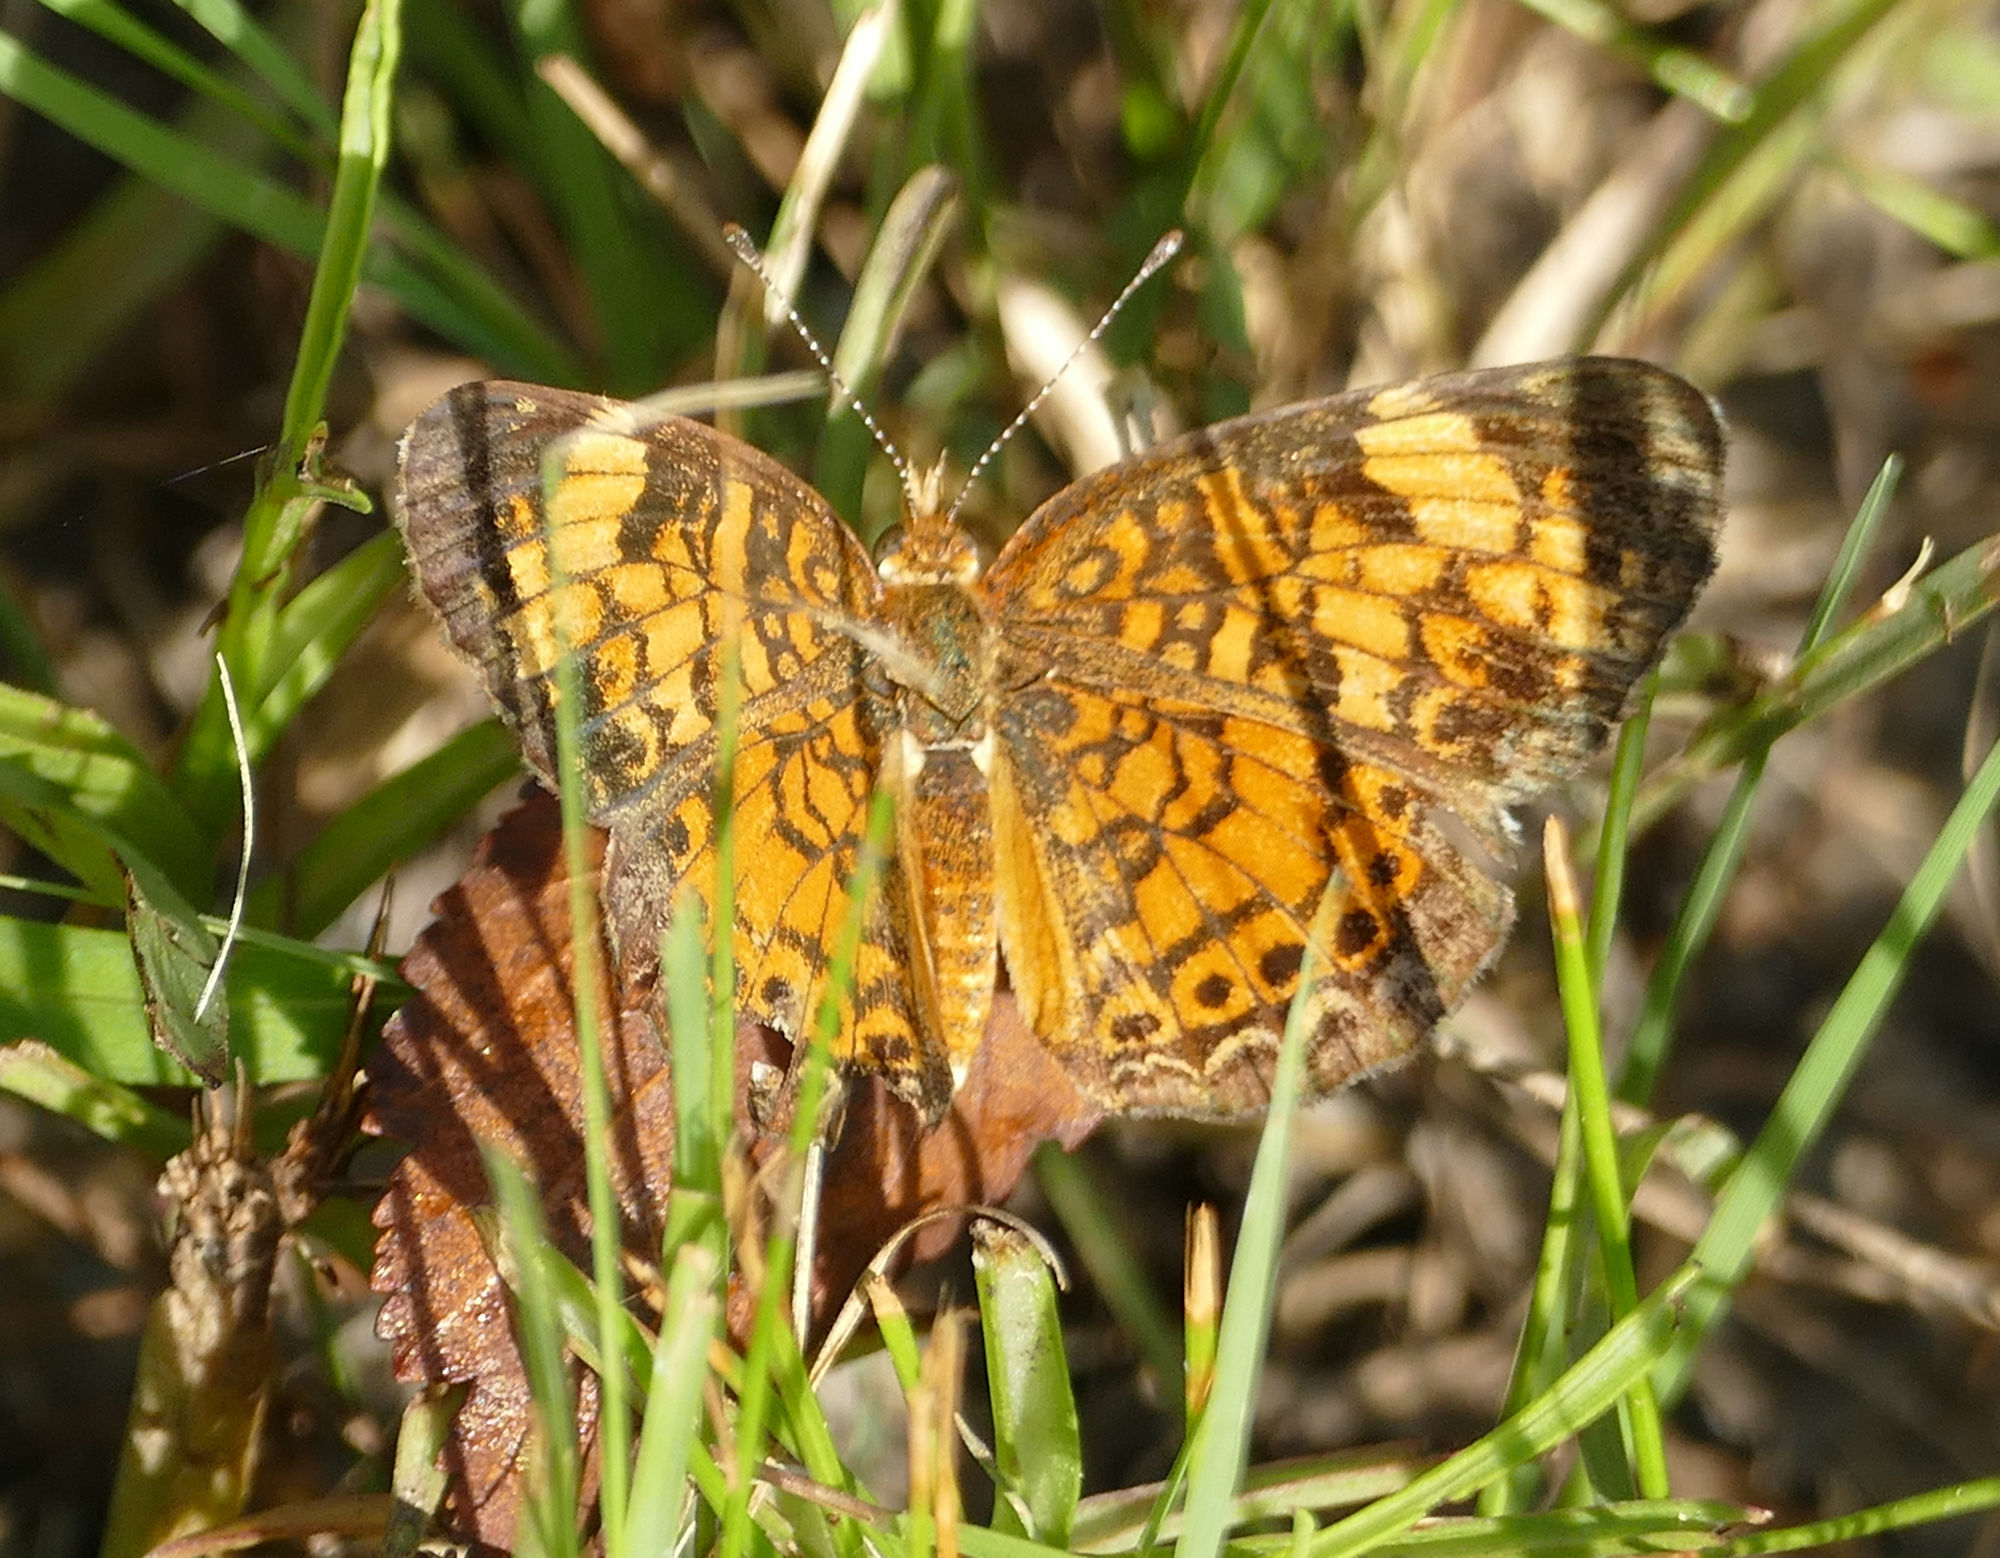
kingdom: Animalia
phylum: Arthropoda
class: Insecta
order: Lepidoptera
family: Nymphalidae
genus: Phyciodes
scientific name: Phyciodes tharos
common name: Pearl crescent
